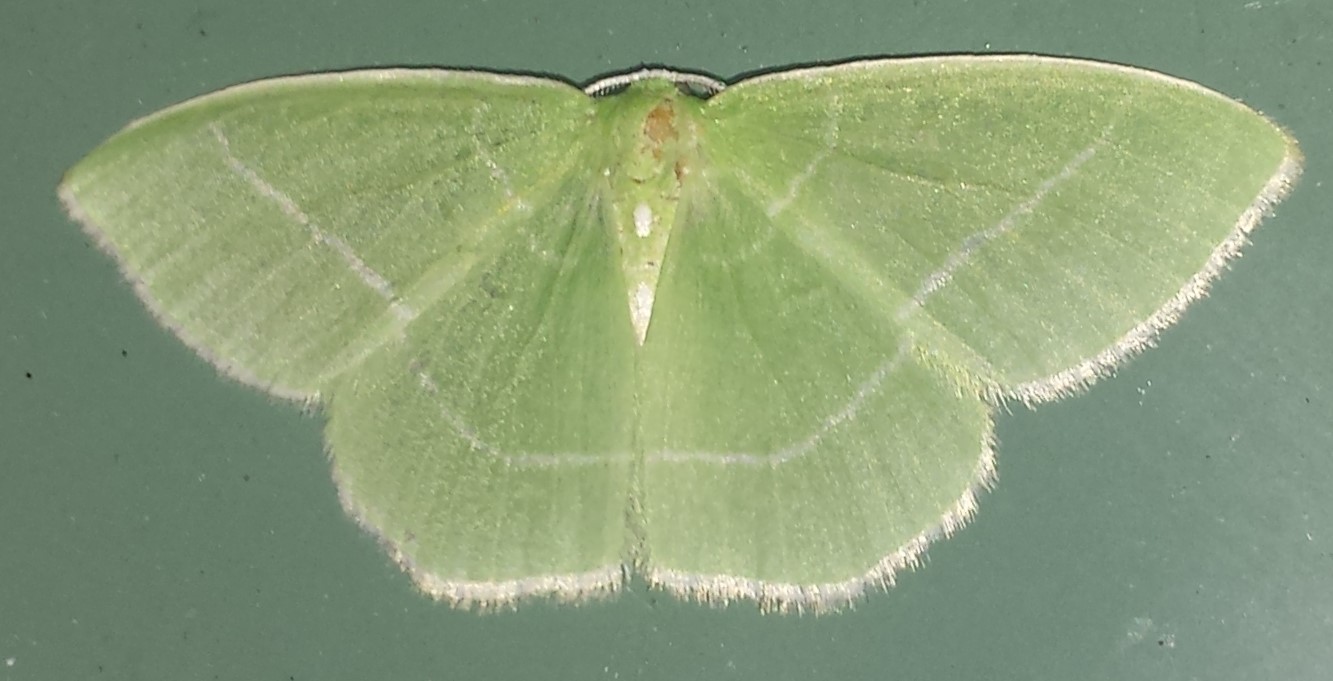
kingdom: Animalia
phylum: Arthropoda
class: Insecta
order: Lepidoptera
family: Geometridae
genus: Nemoria
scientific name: Nemoria mimosaria
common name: White-fringed emerald
